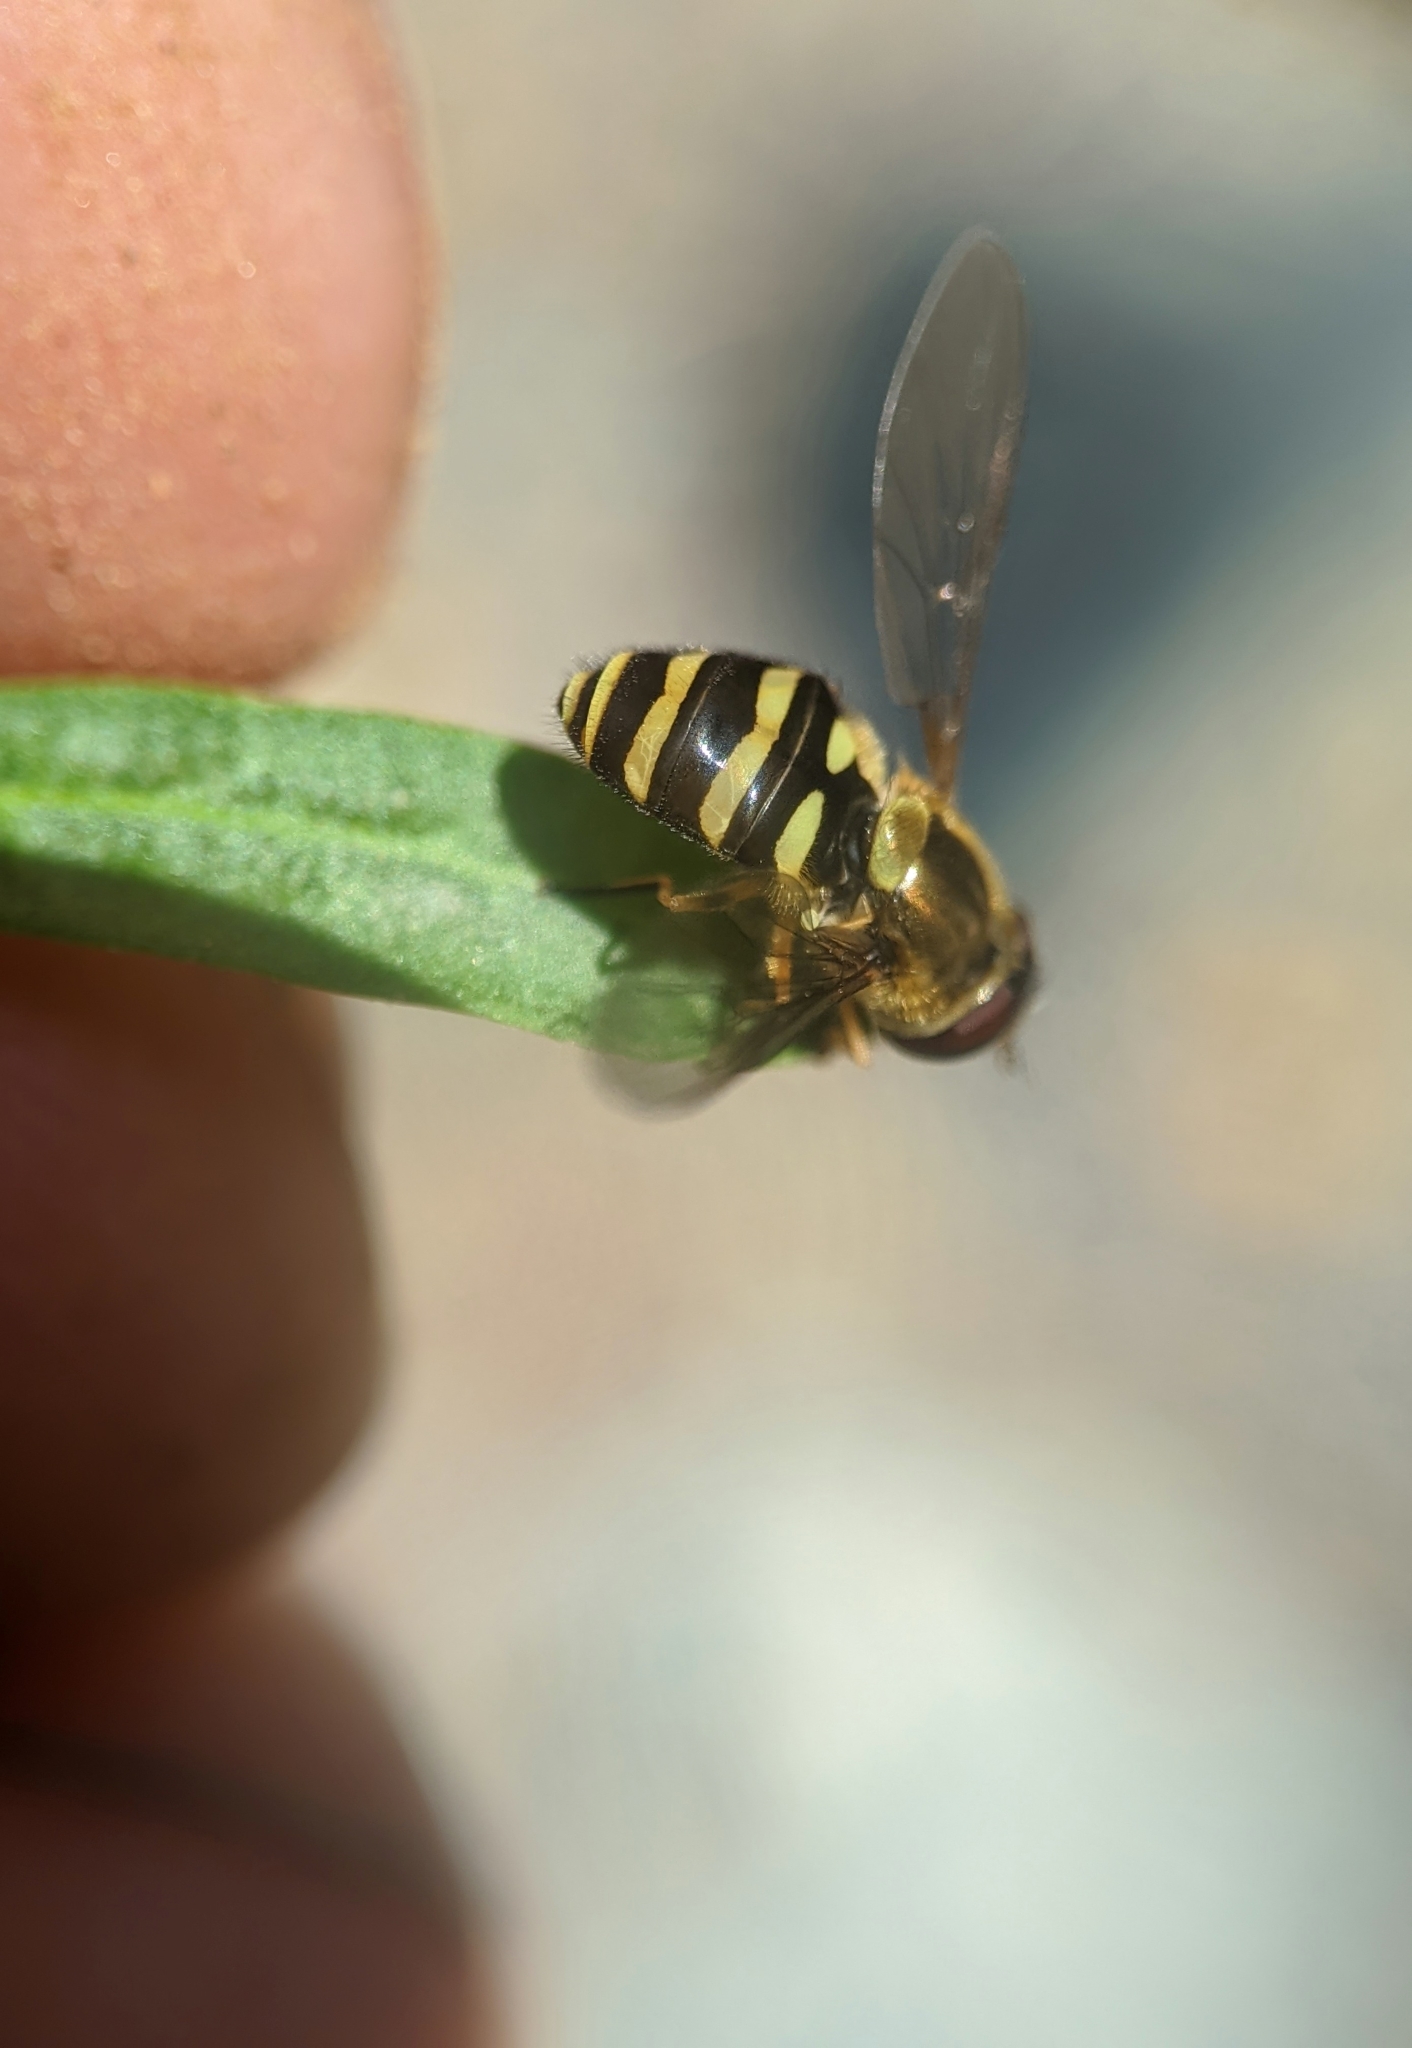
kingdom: Animalia
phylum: Arthropoda
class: Insecta
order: Diptera
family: Syrphidae
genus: Syrphus
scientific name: Syrphus opinator
